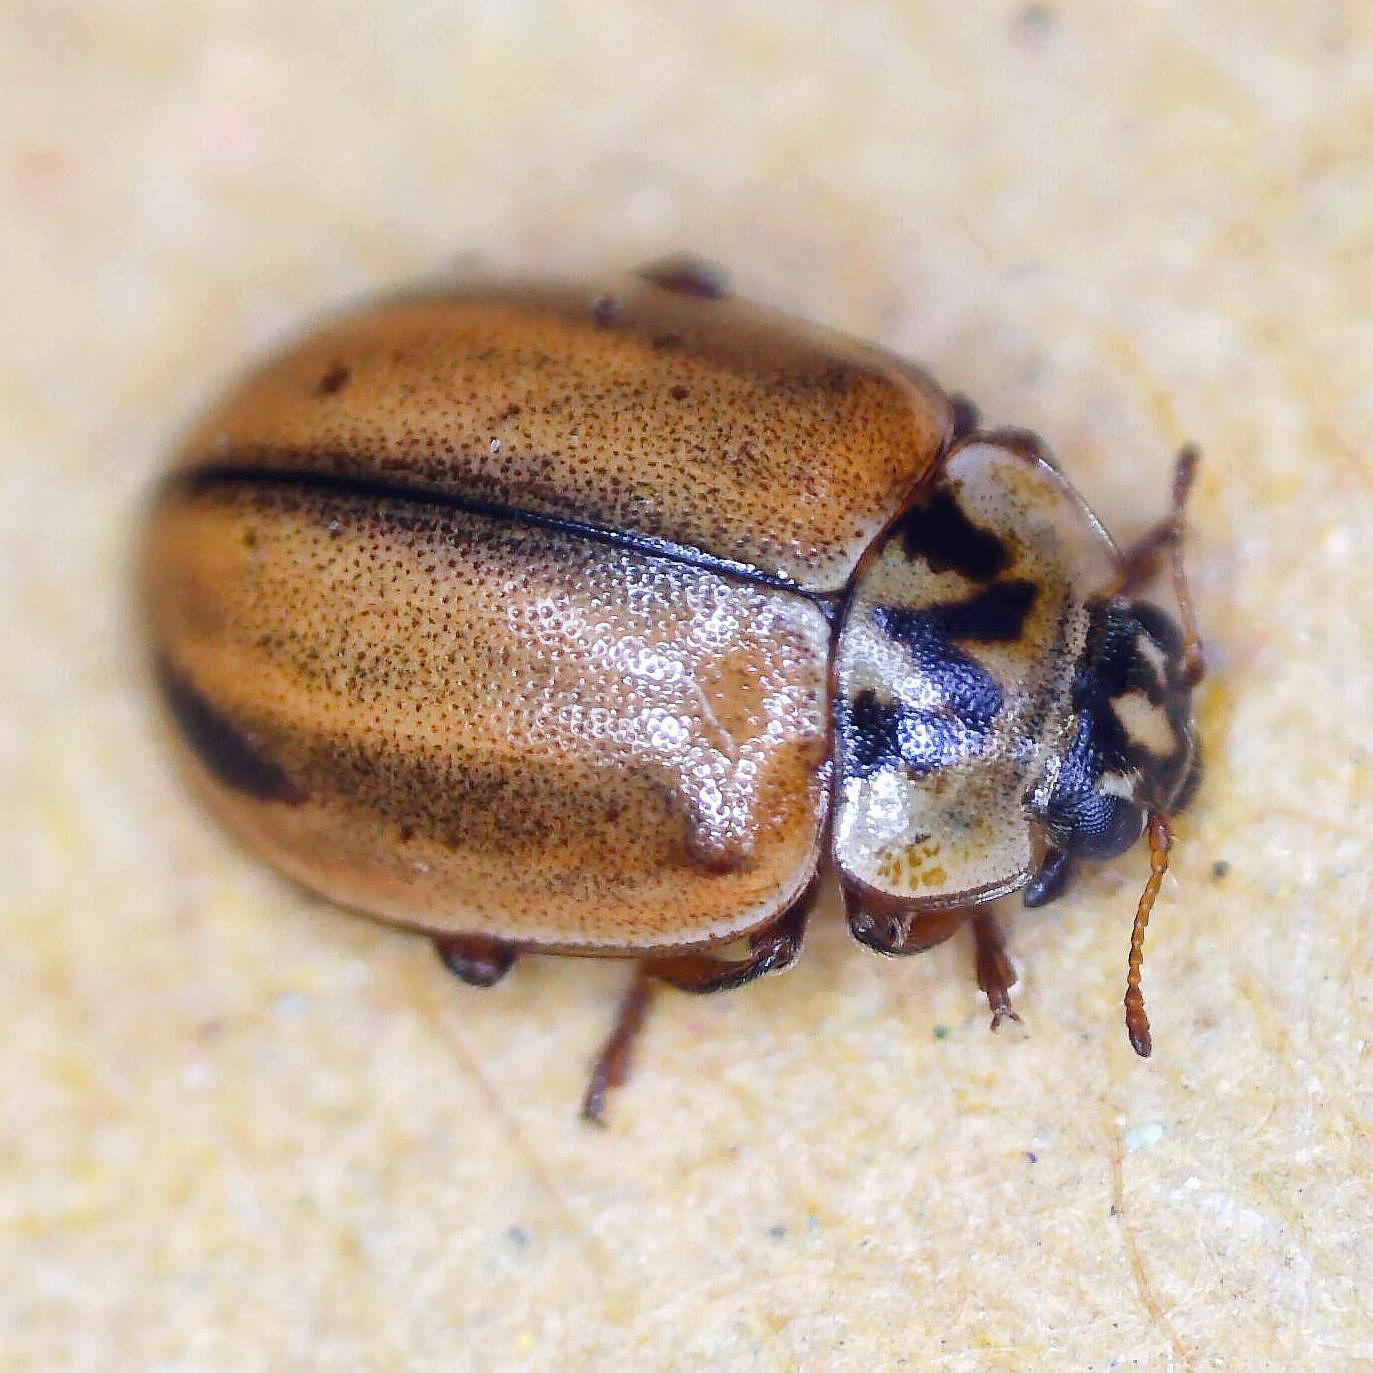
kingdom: Animalia
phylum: Arthropoda
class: Insecta
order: Coleoptera
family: Coccinellidae
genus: Aphidecta
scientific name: Aphidecta obliterata
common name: Larch ladybird
